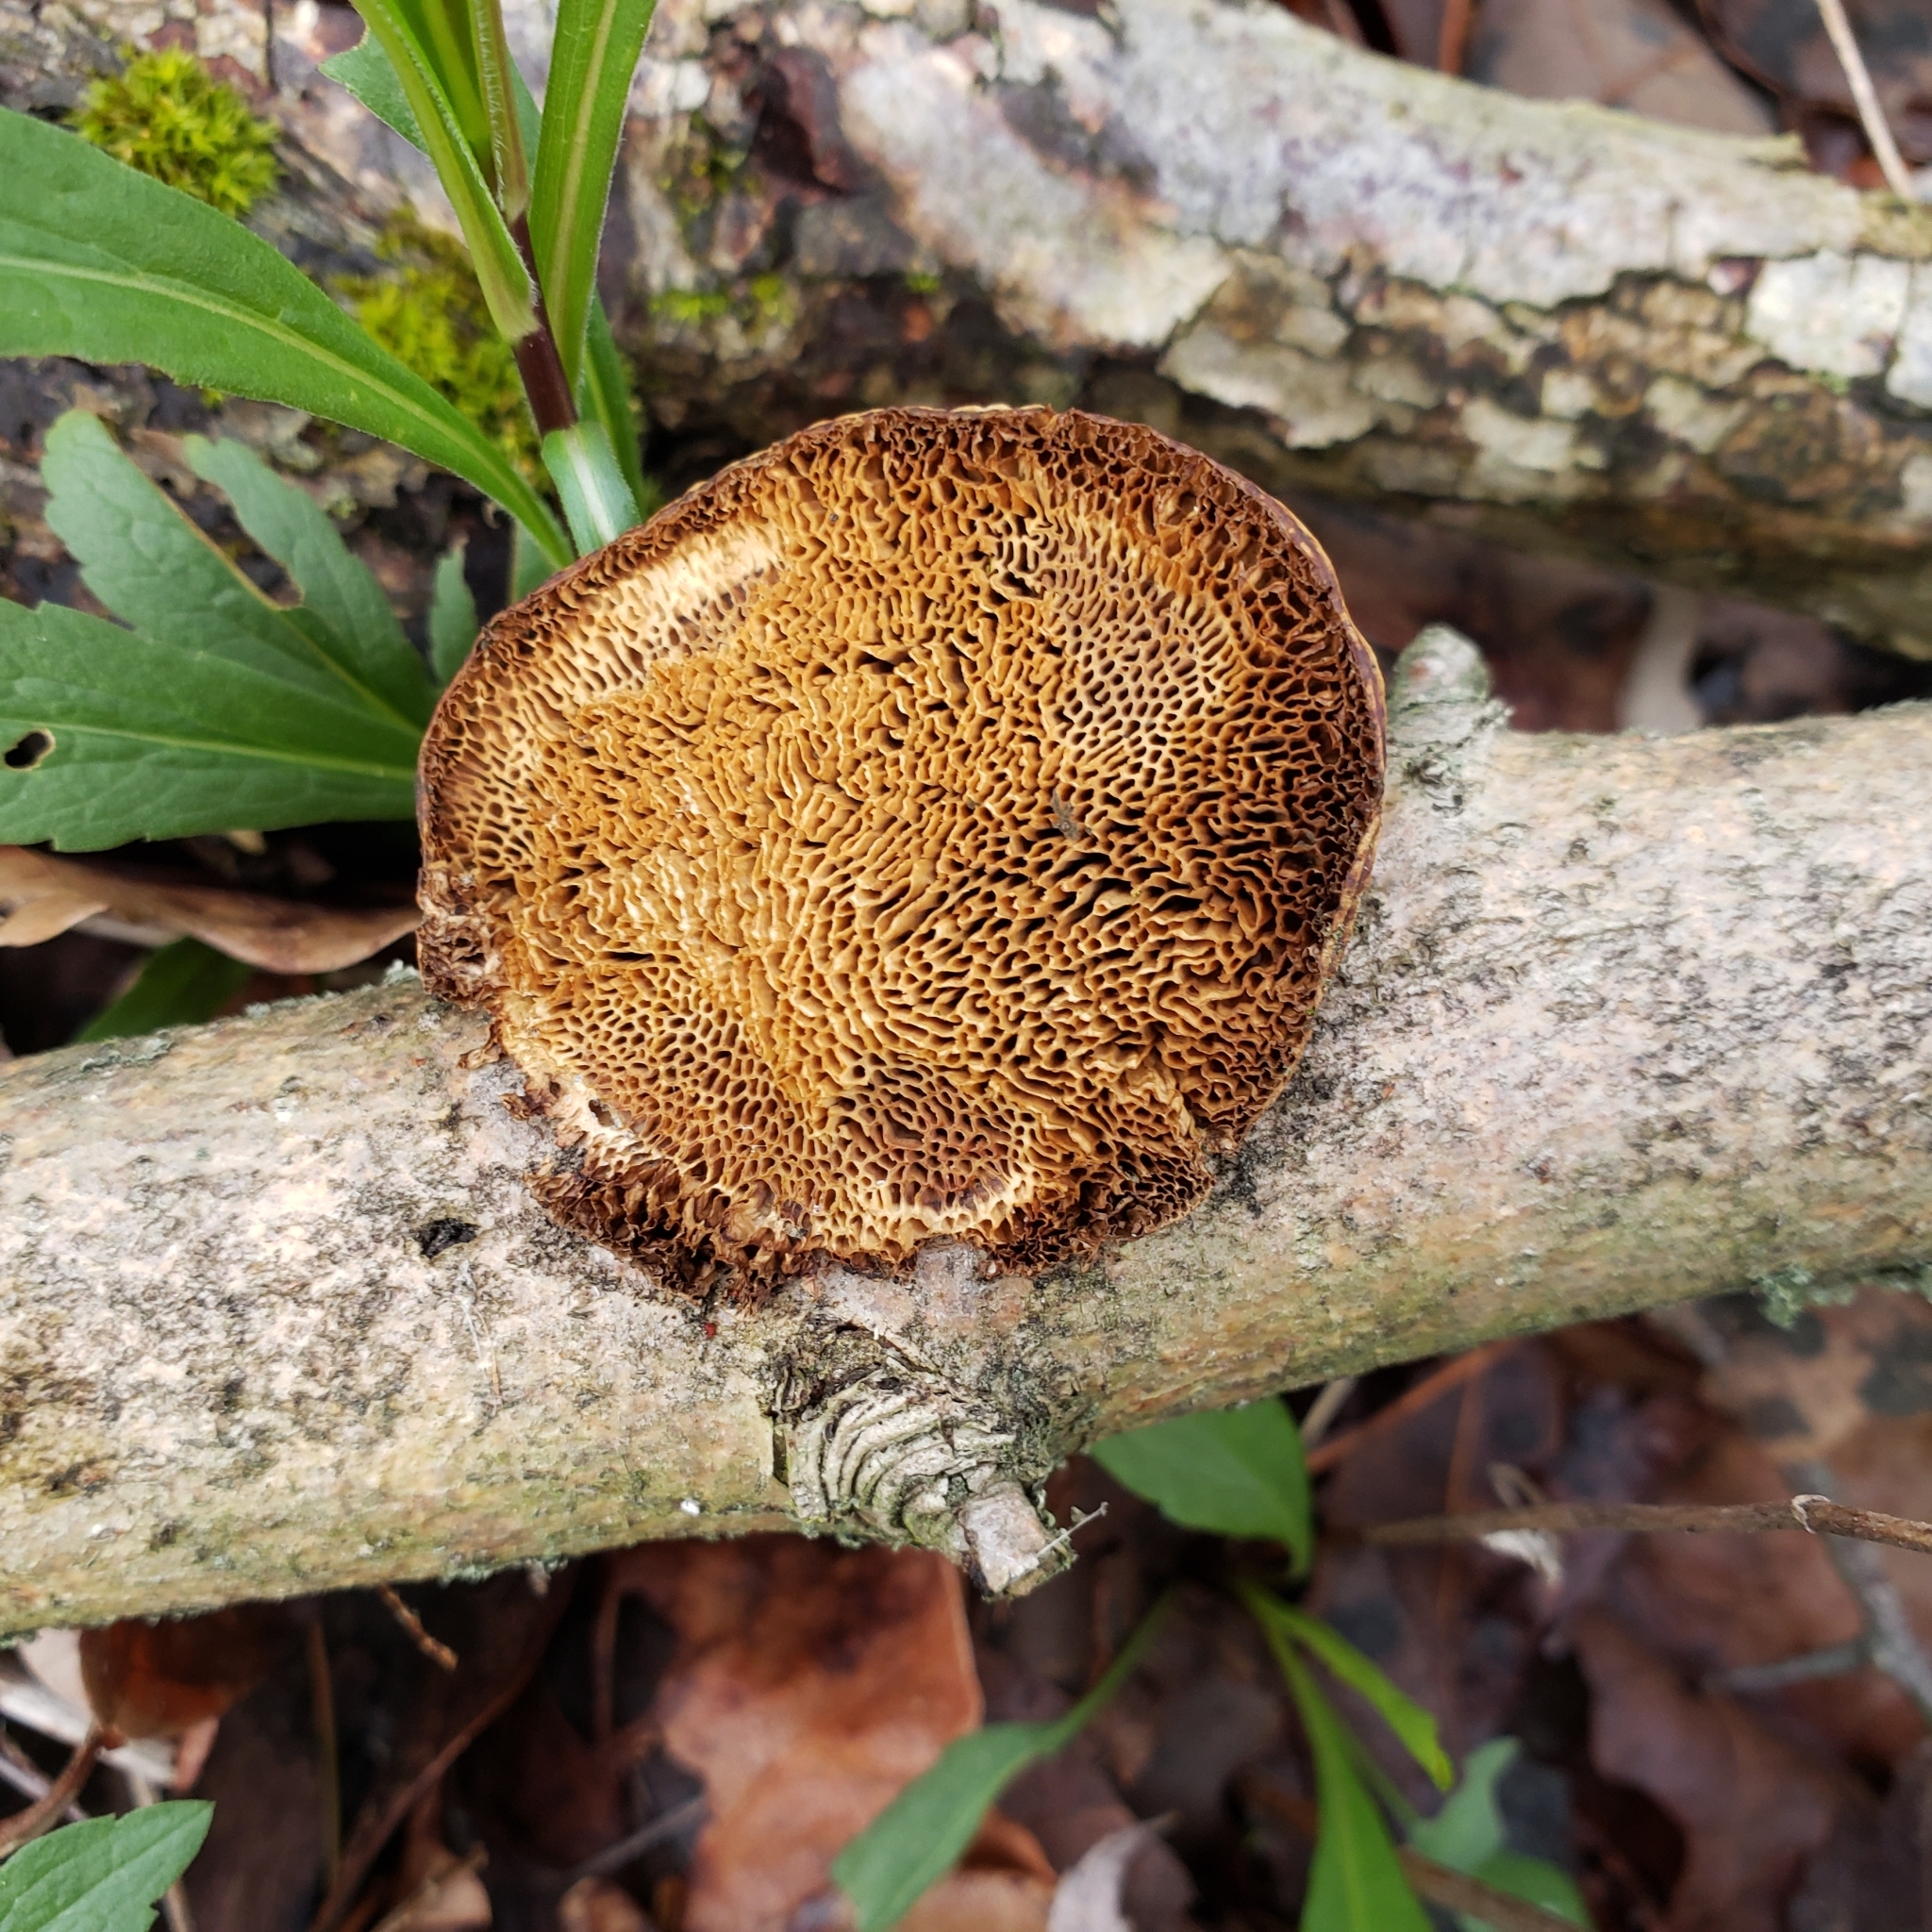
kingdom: Fungi
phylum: Basidiomycota
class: Agaricomycetes
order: Polyporales
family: Polyporaceae
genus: Daedaleopsis
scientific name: Daedaleopsis confragosa
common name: Blushing bracket
